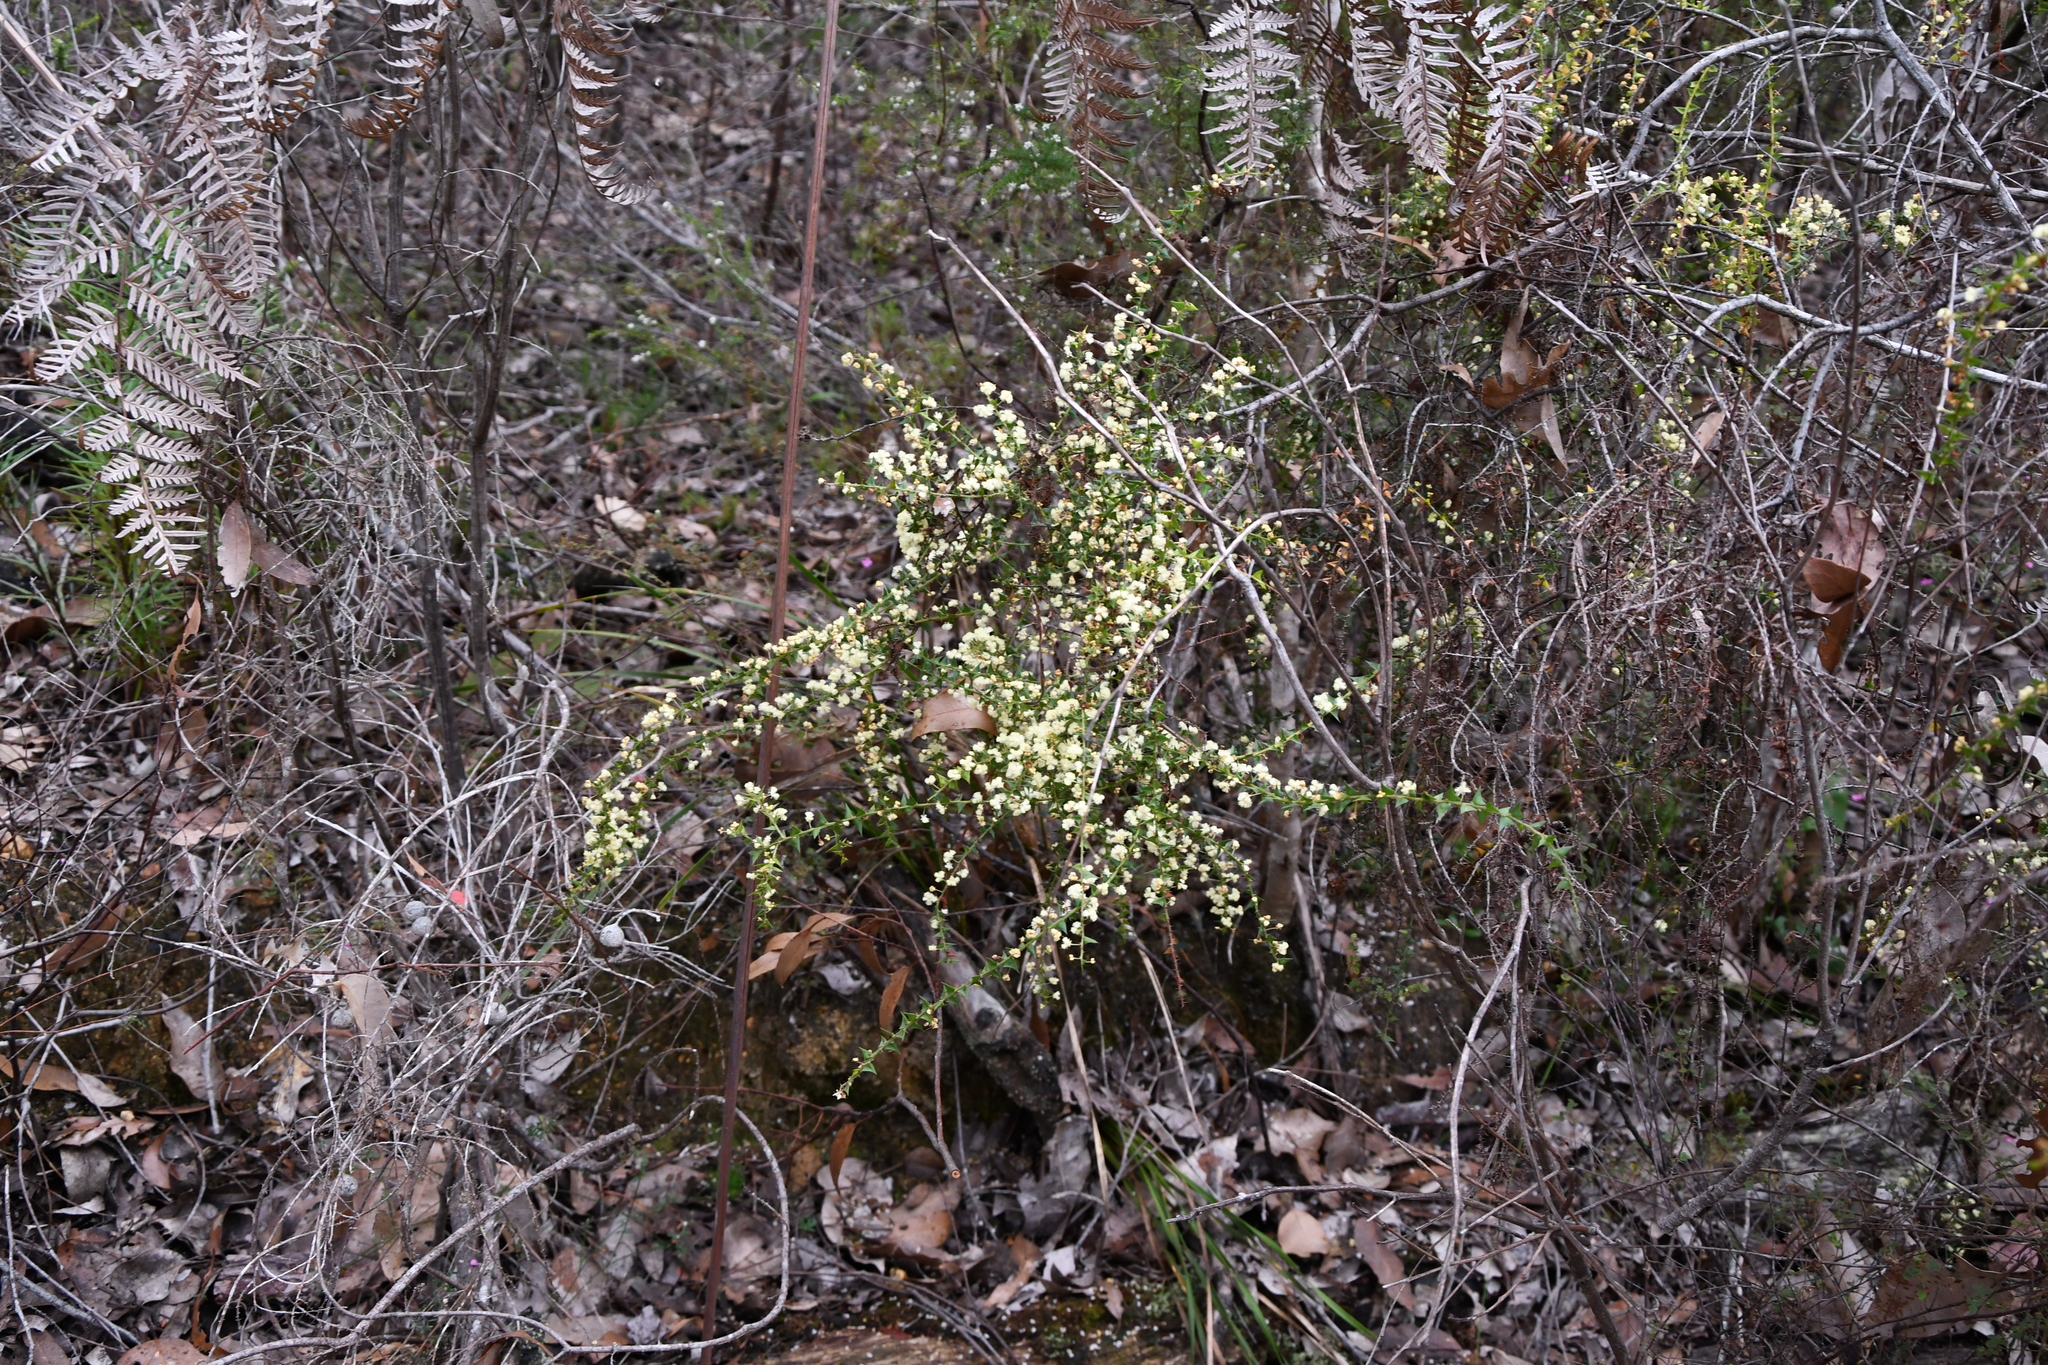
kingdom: Plantae
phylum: Tracheophyta
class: Magnoliopsida
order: Fabales
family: Fabaceae
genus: Acacia
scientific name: Acacia divergens
